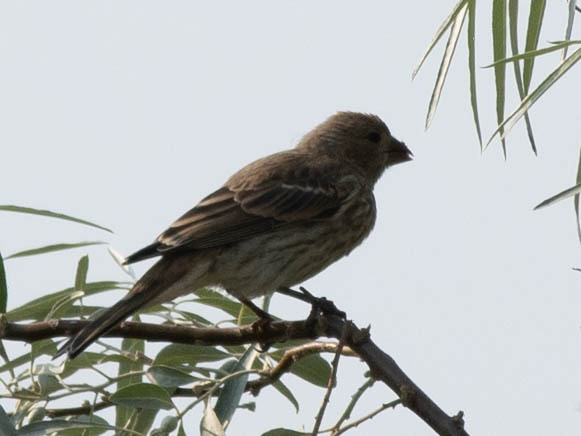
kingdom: Animalia
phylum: Chordata
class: Aves
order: Passeriformes
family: Fringillidae
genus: Haemorhous
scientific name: Haemorhous mexicanus
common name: House finch
